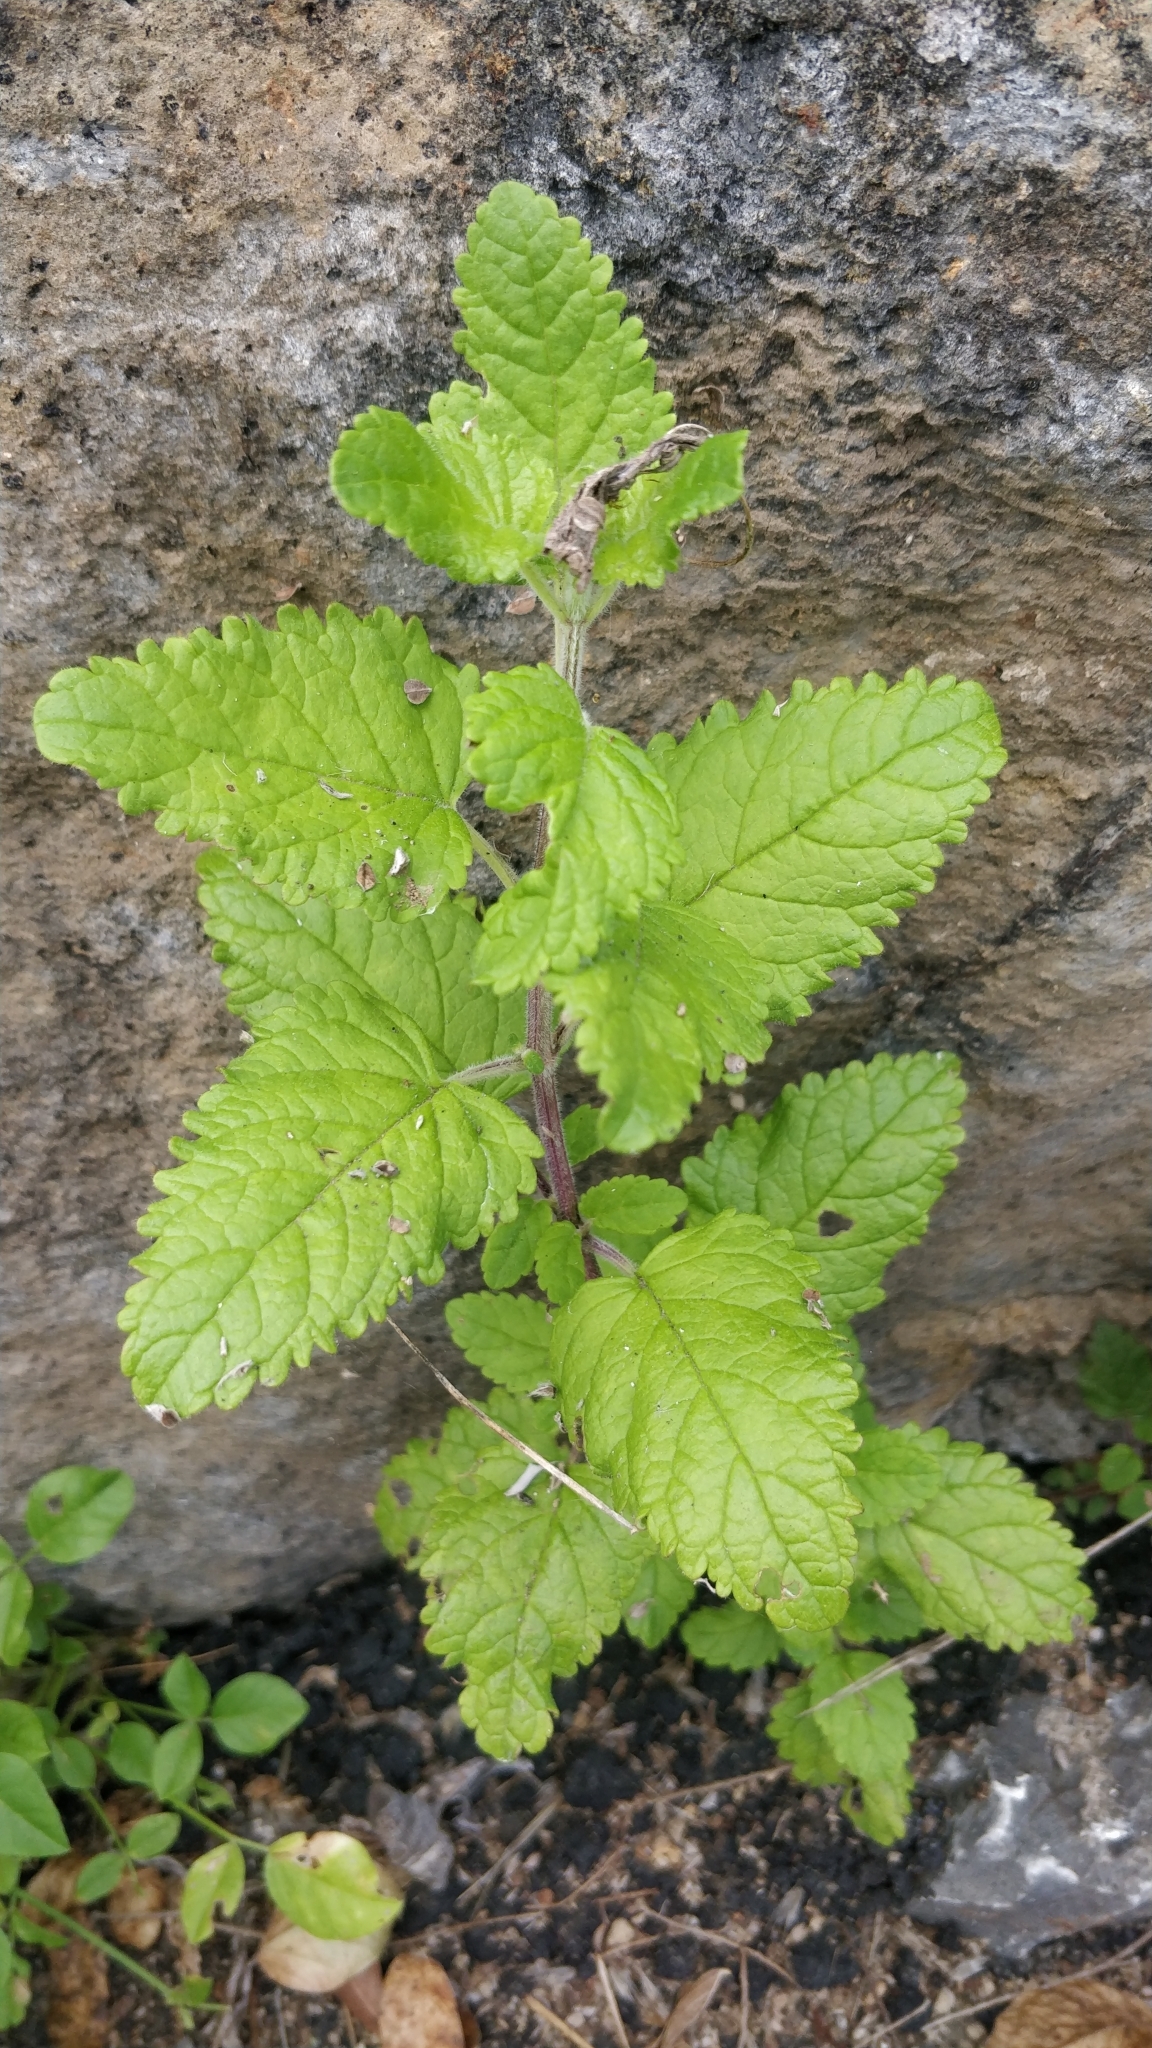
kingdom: Plantae
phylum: Tracheophyta
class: Magnoliopsida
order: Lamiales
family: Lamiaceae
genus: Bystropogon
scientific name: Bystropogon canariensis
